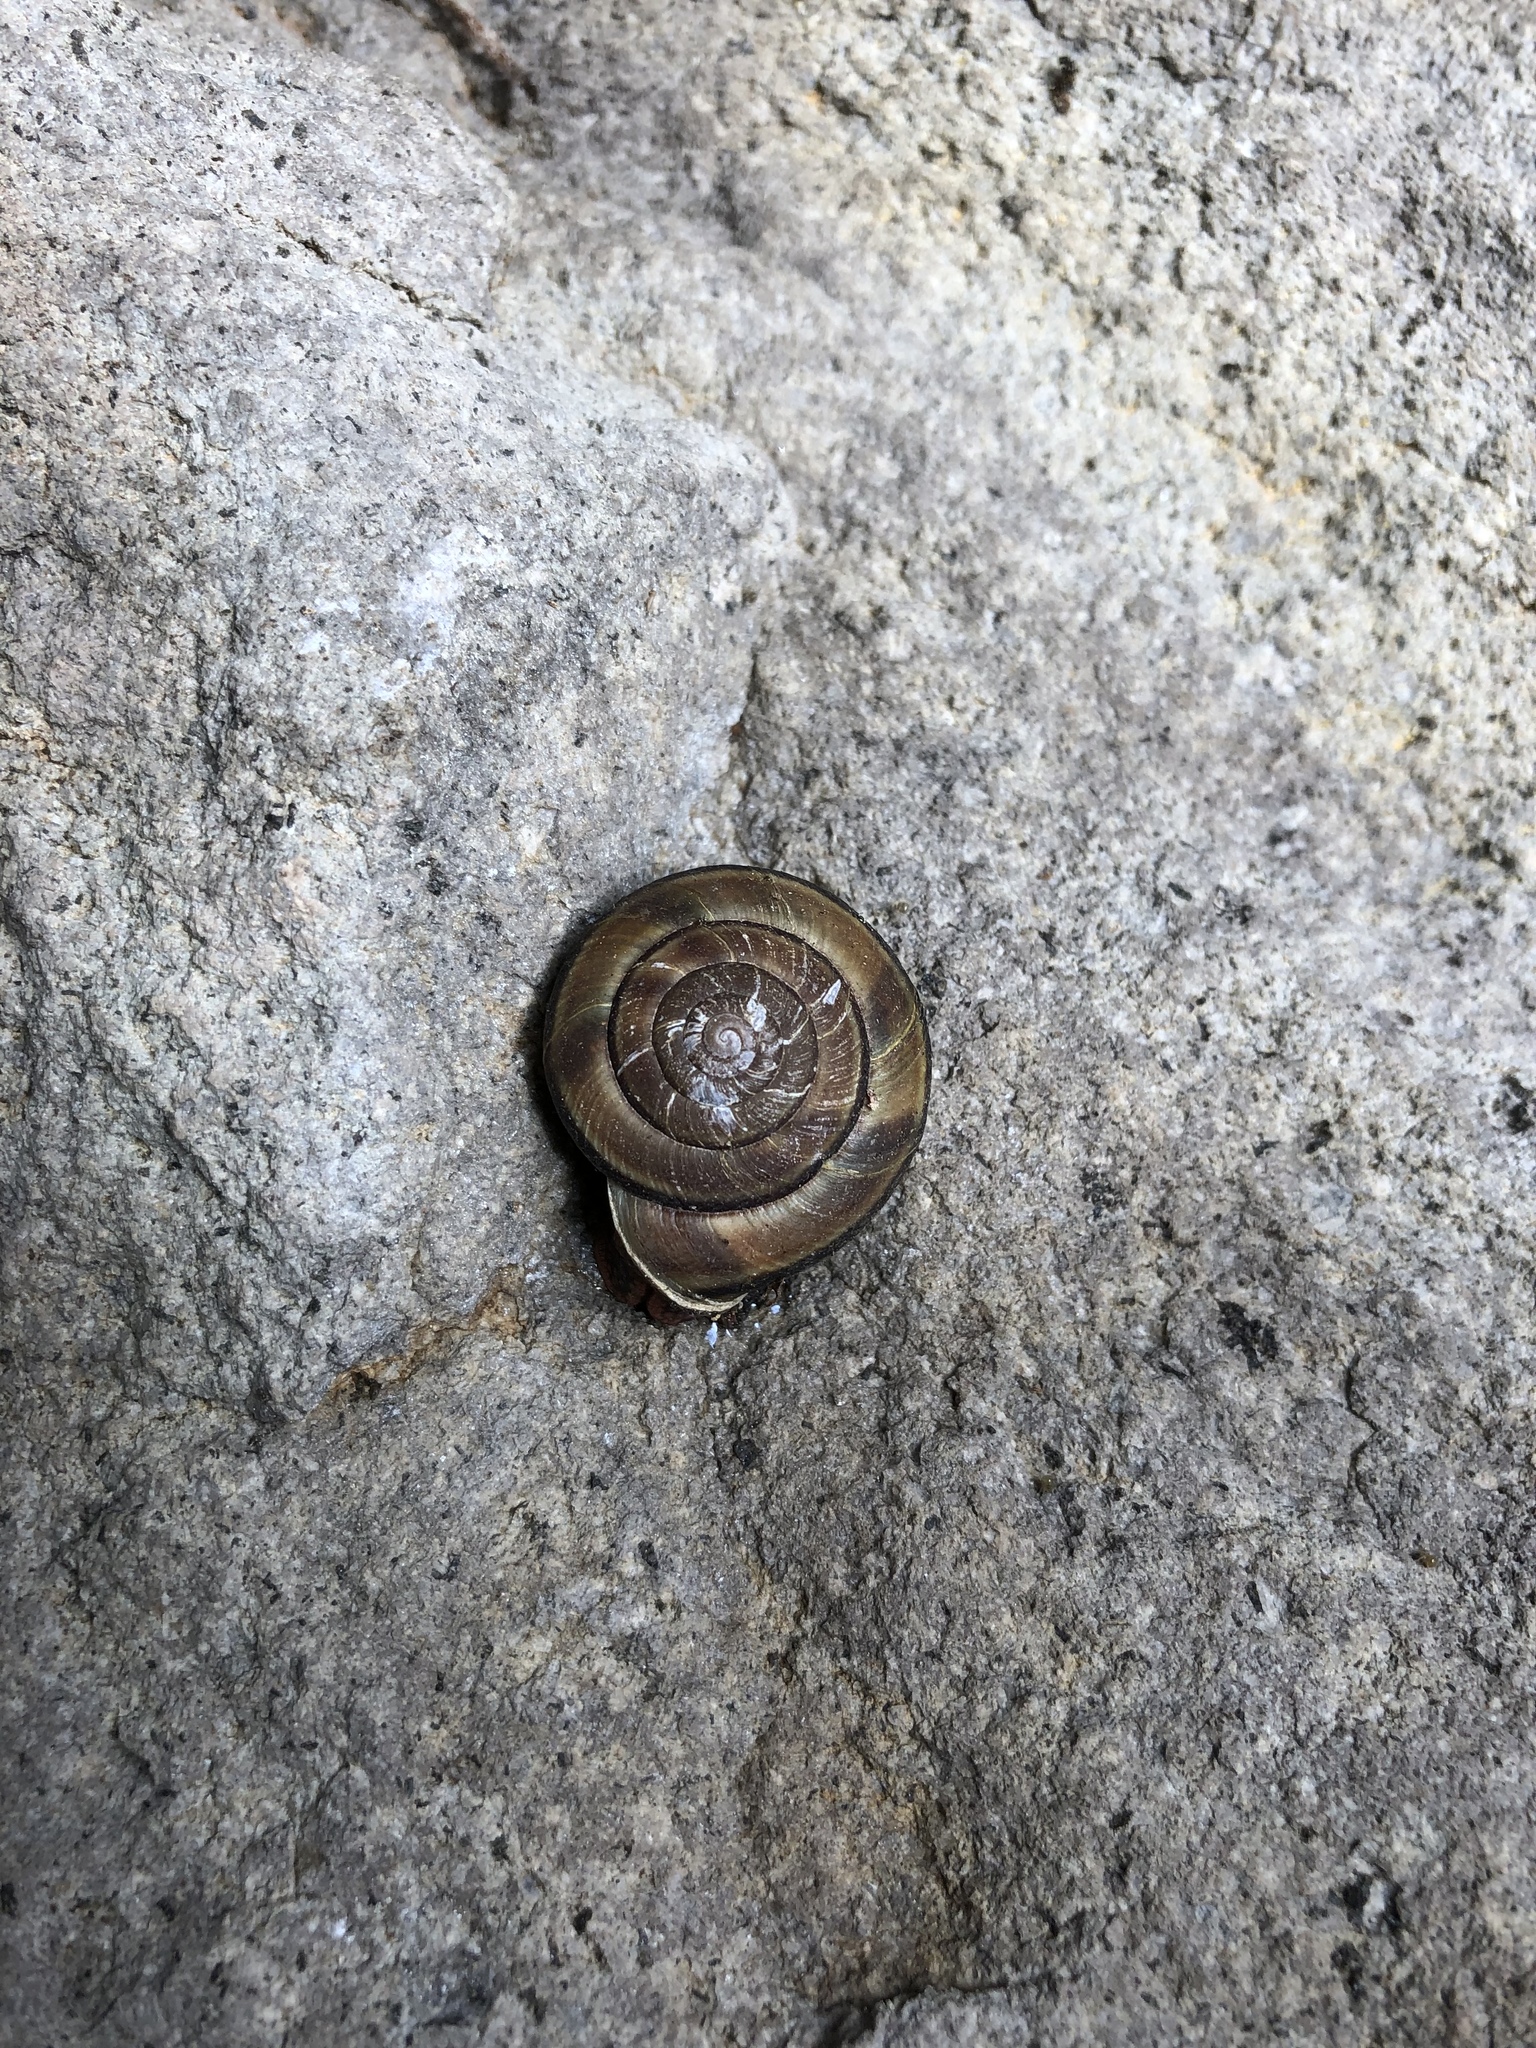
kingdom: Animalia
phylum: Mollusca
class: Gastropoda
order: Stylommatophora
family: Xanthonychidae
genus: Monadenia
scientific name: Monadenia fidelis
